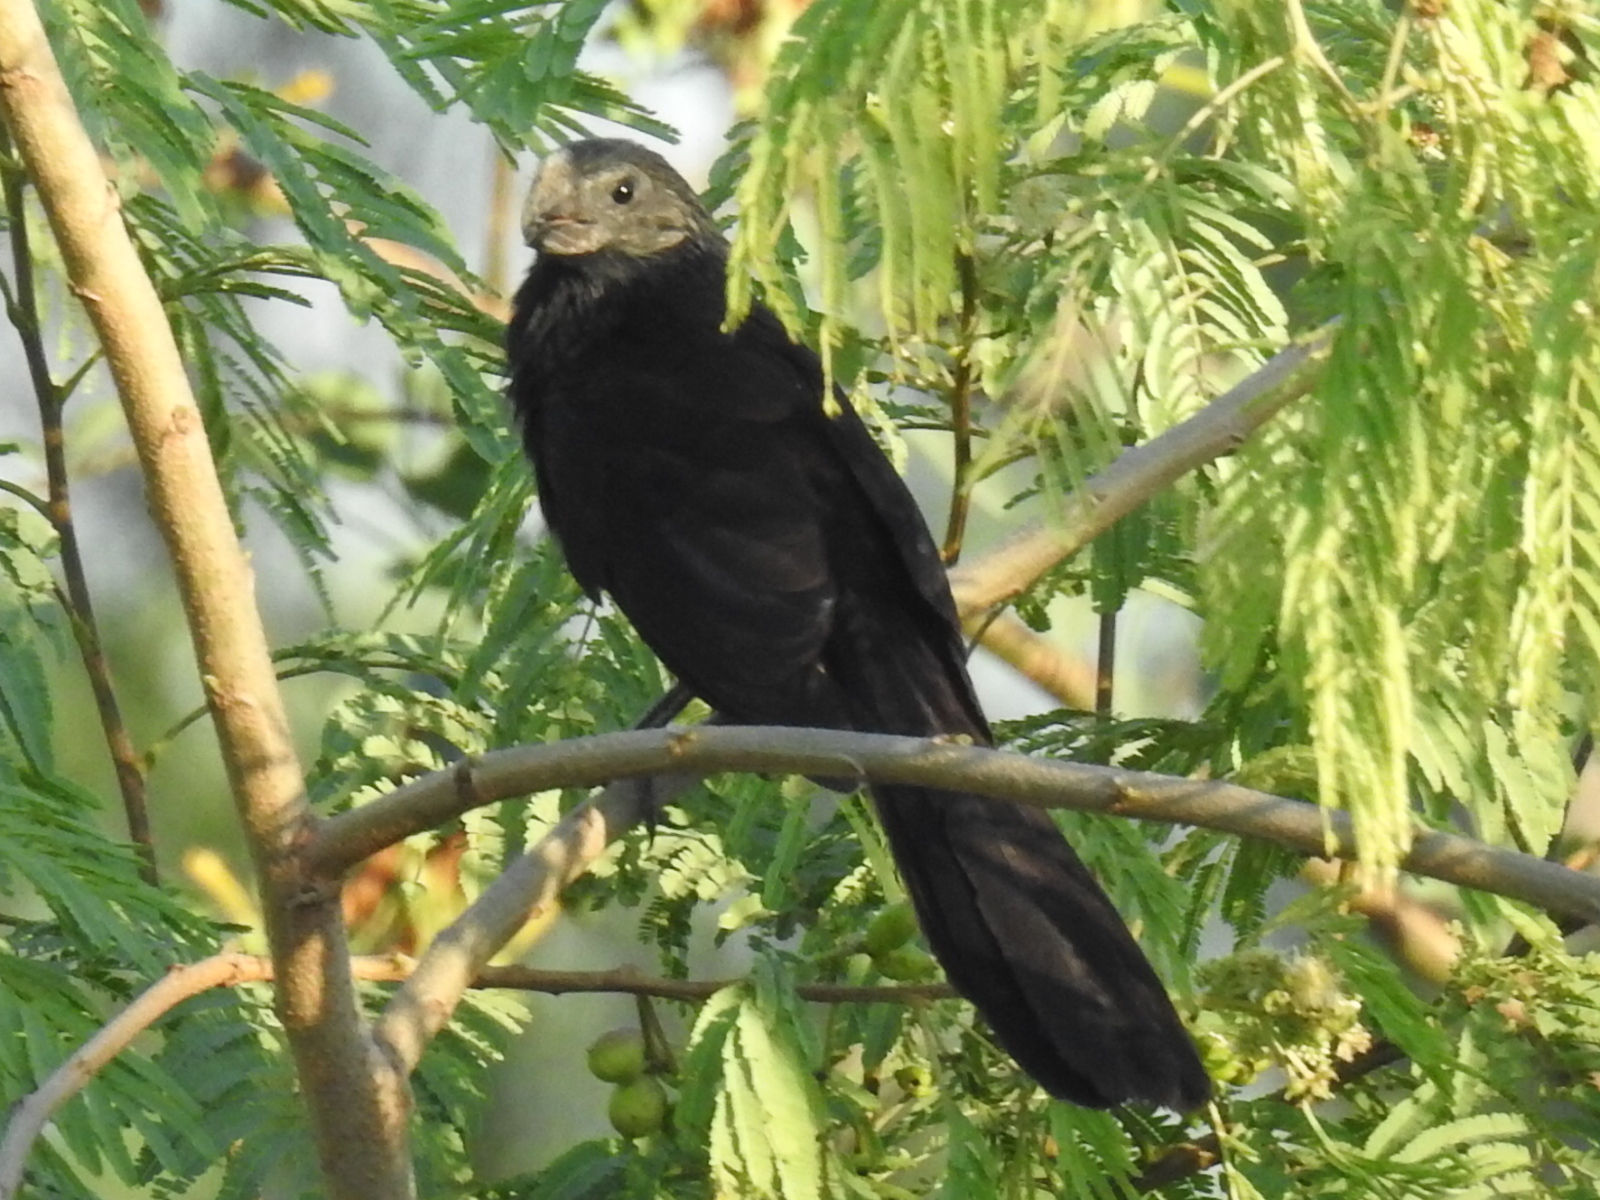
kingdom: Animalia
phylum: Chordata
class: Aves
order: Cuculiformes
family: Cuculidae
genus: Crotophaga
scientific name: Crotophaga sulcirostris
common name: Groove-billed ani
